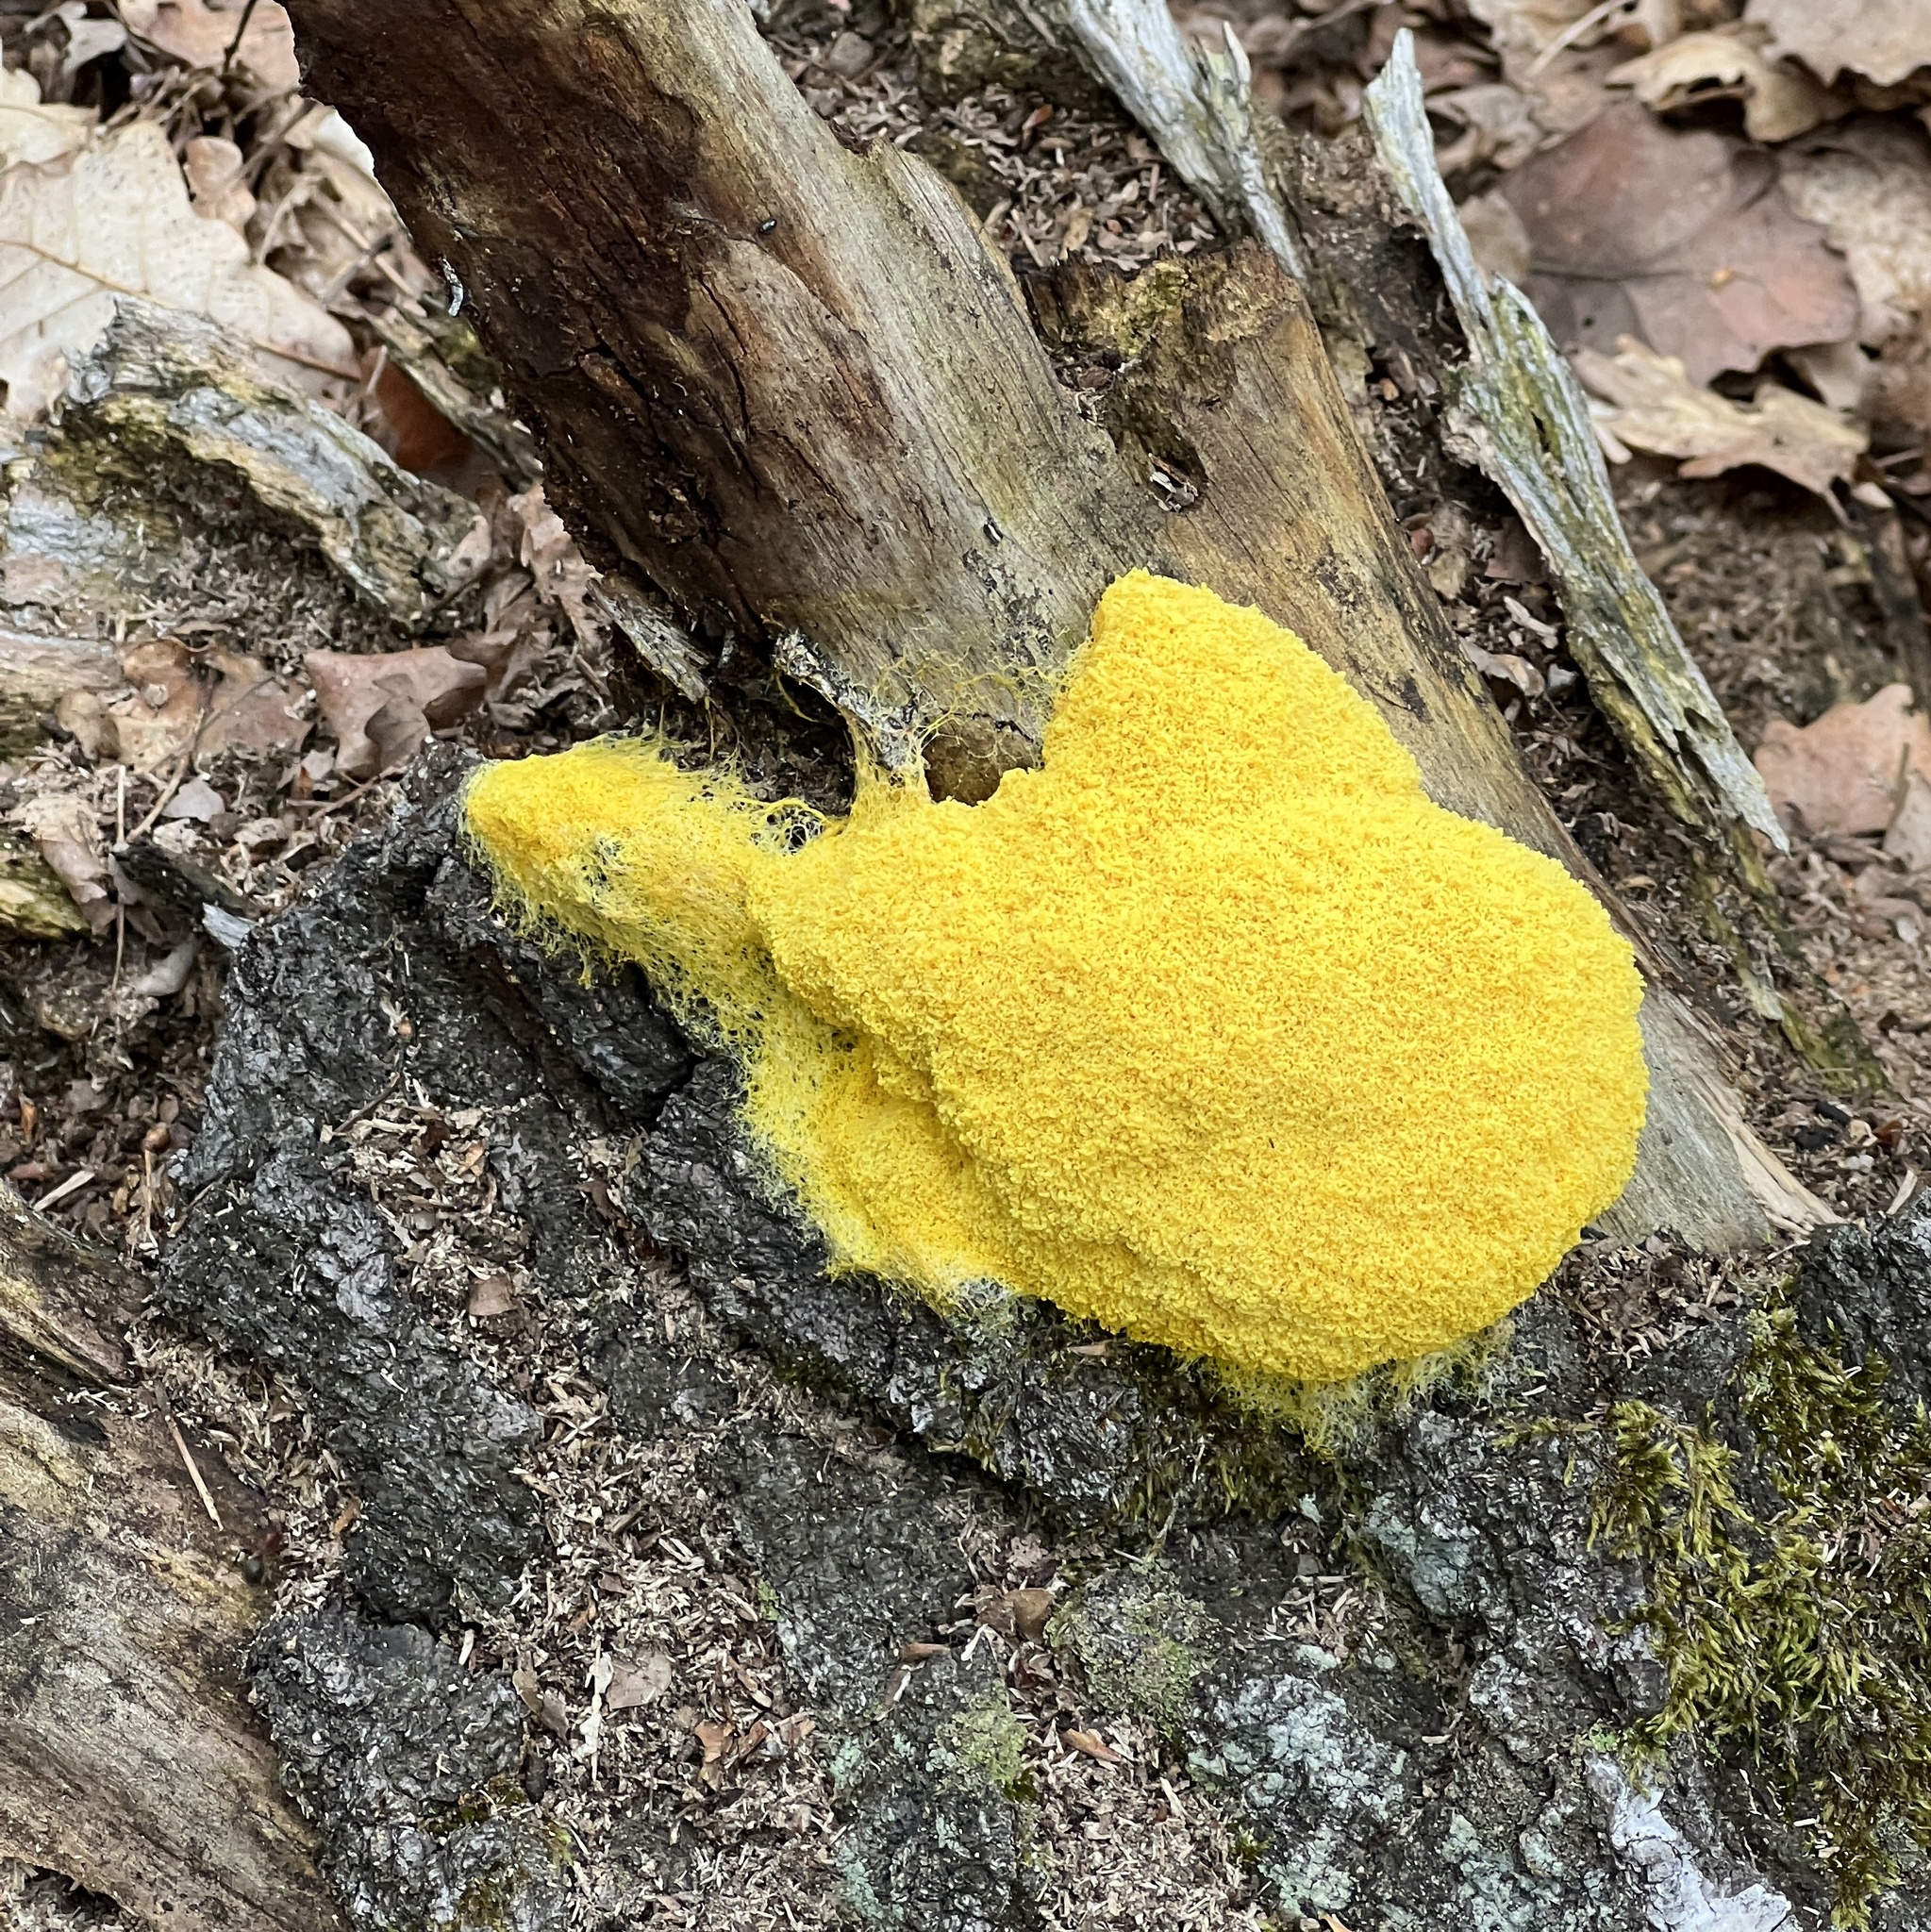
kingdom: Protozoa
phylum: Mycetozoa
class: Myxomycetes
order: Physarales
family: Physaraceae
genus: Fuligo
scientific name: Fuligo septica
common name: Dog vomit slime mold
